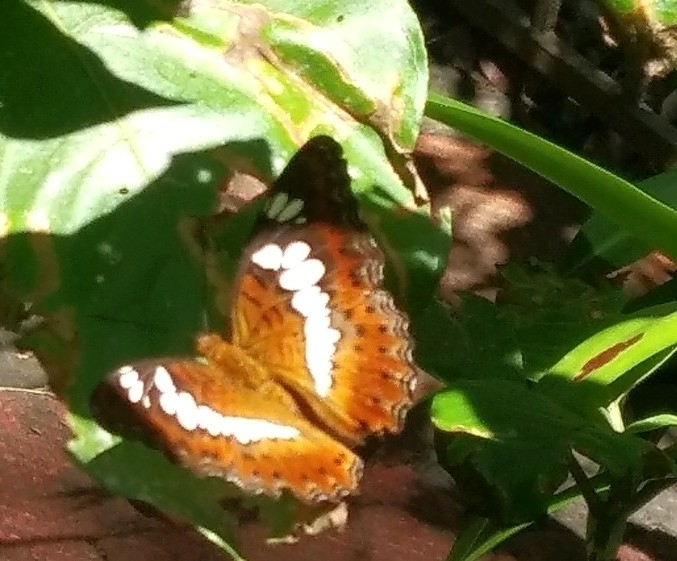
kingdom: Animalia
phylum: Arthropoda
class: Insecta
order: Lepidoptera
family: Nymphalidae
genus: Limenitis
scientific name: Limenitis Moduza procris
